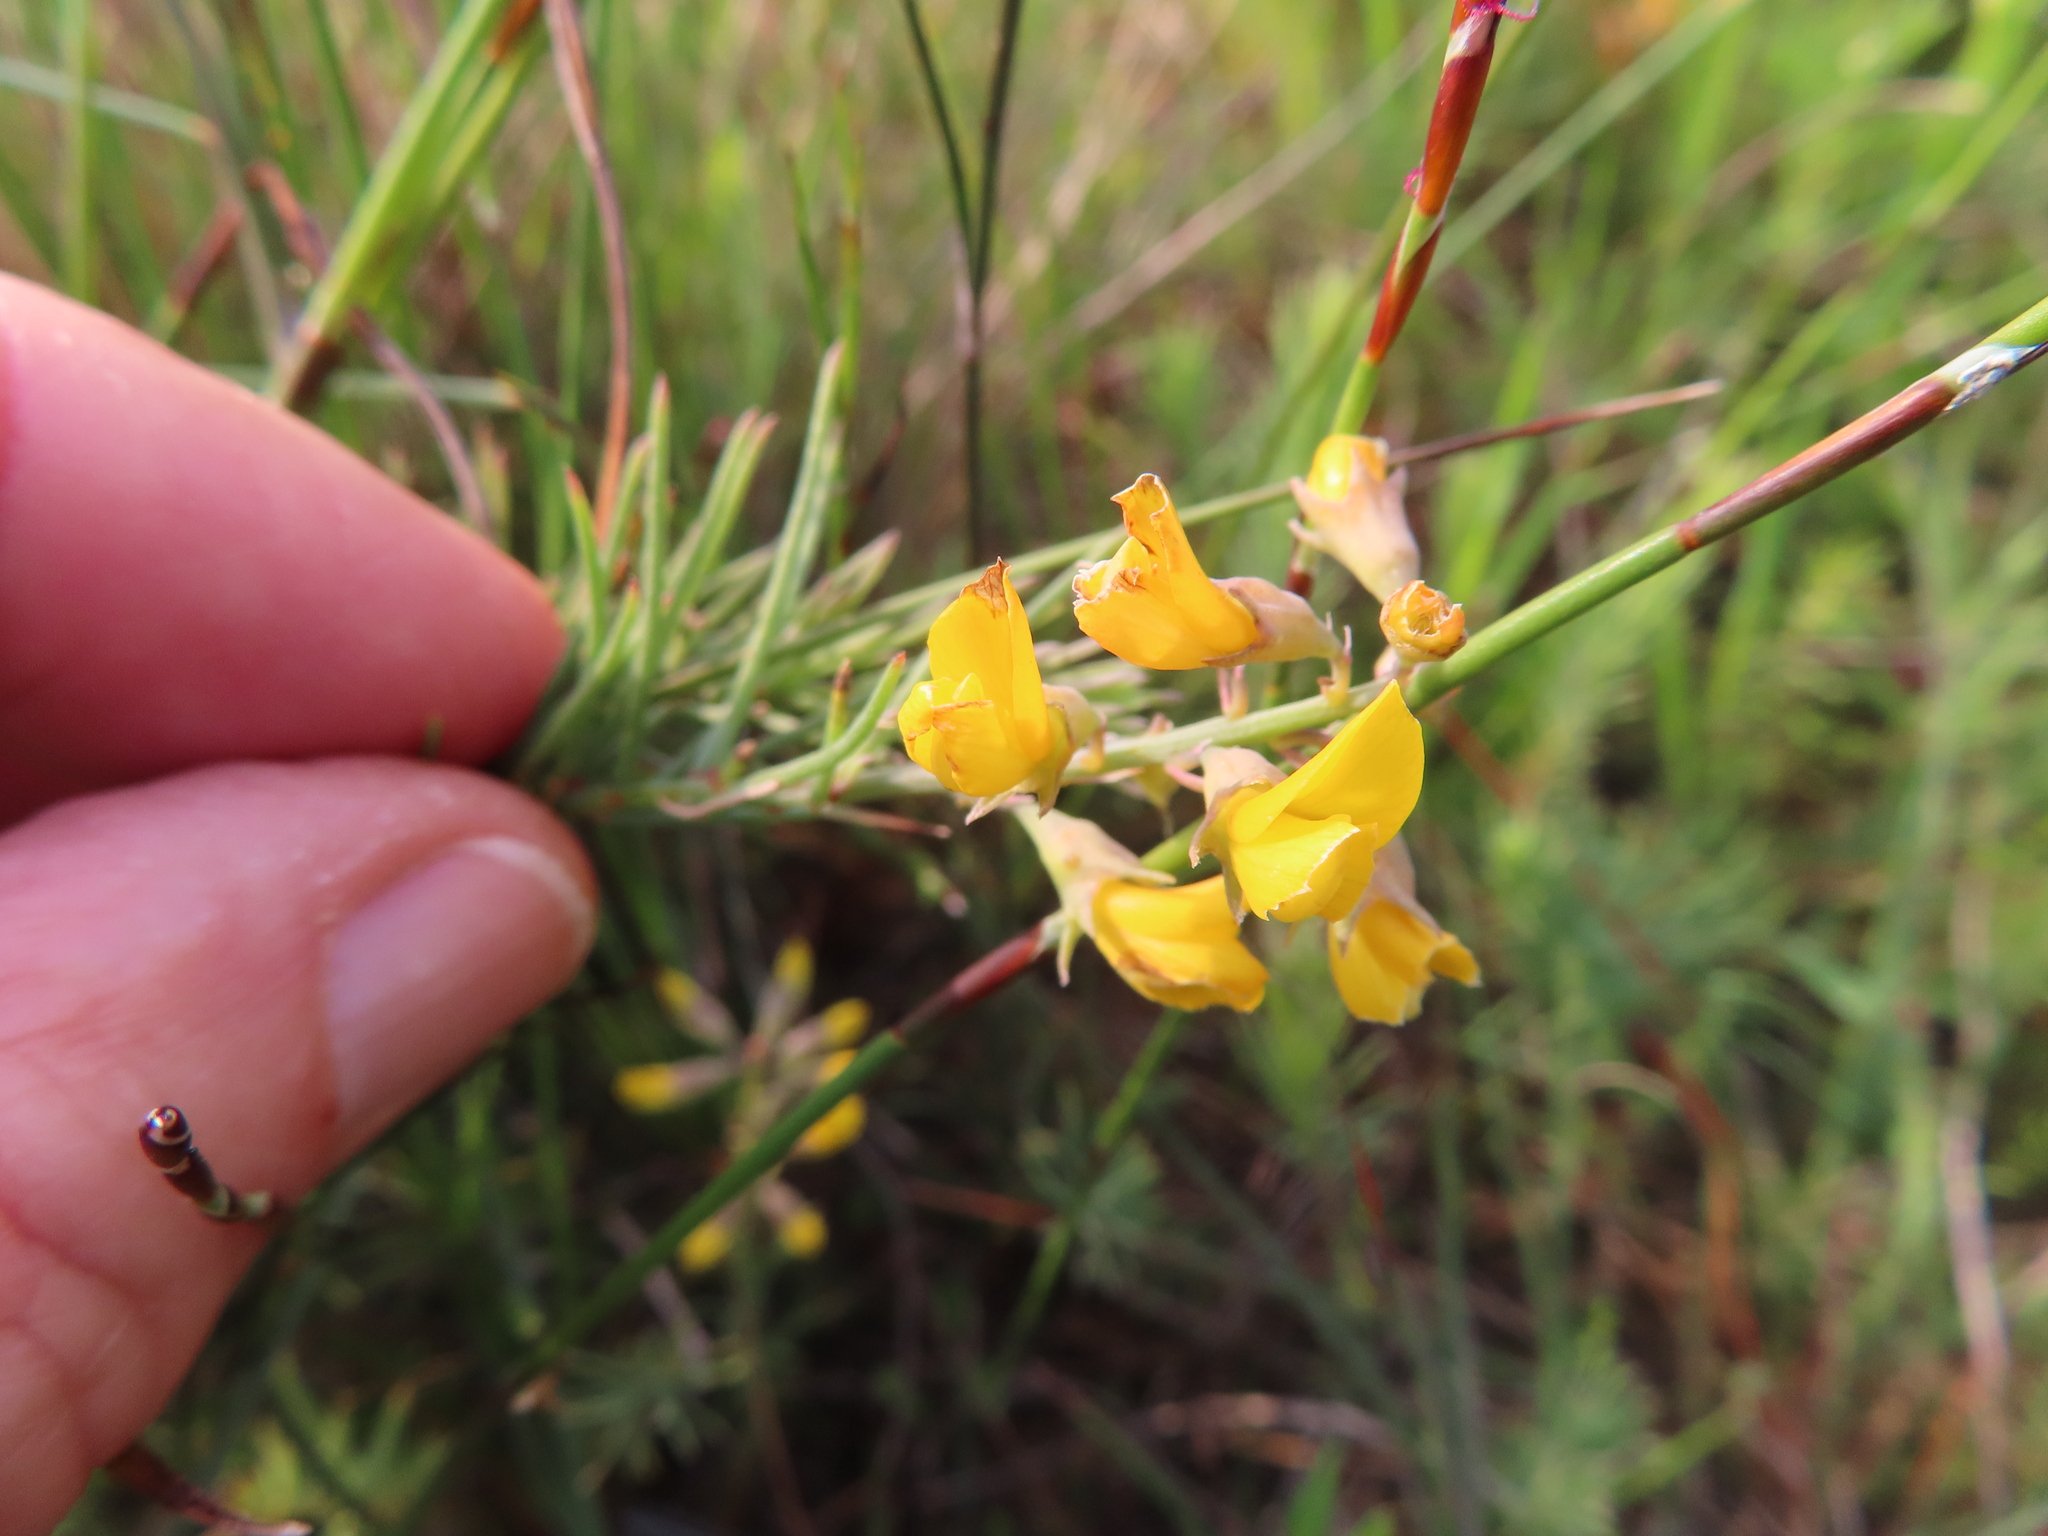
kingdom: Plantae
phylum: Tracheophyta
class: Magnoliopsida
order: Fabales
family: Fabaceae
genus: Lebeckia
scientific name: Lebeckia plukenetiana
